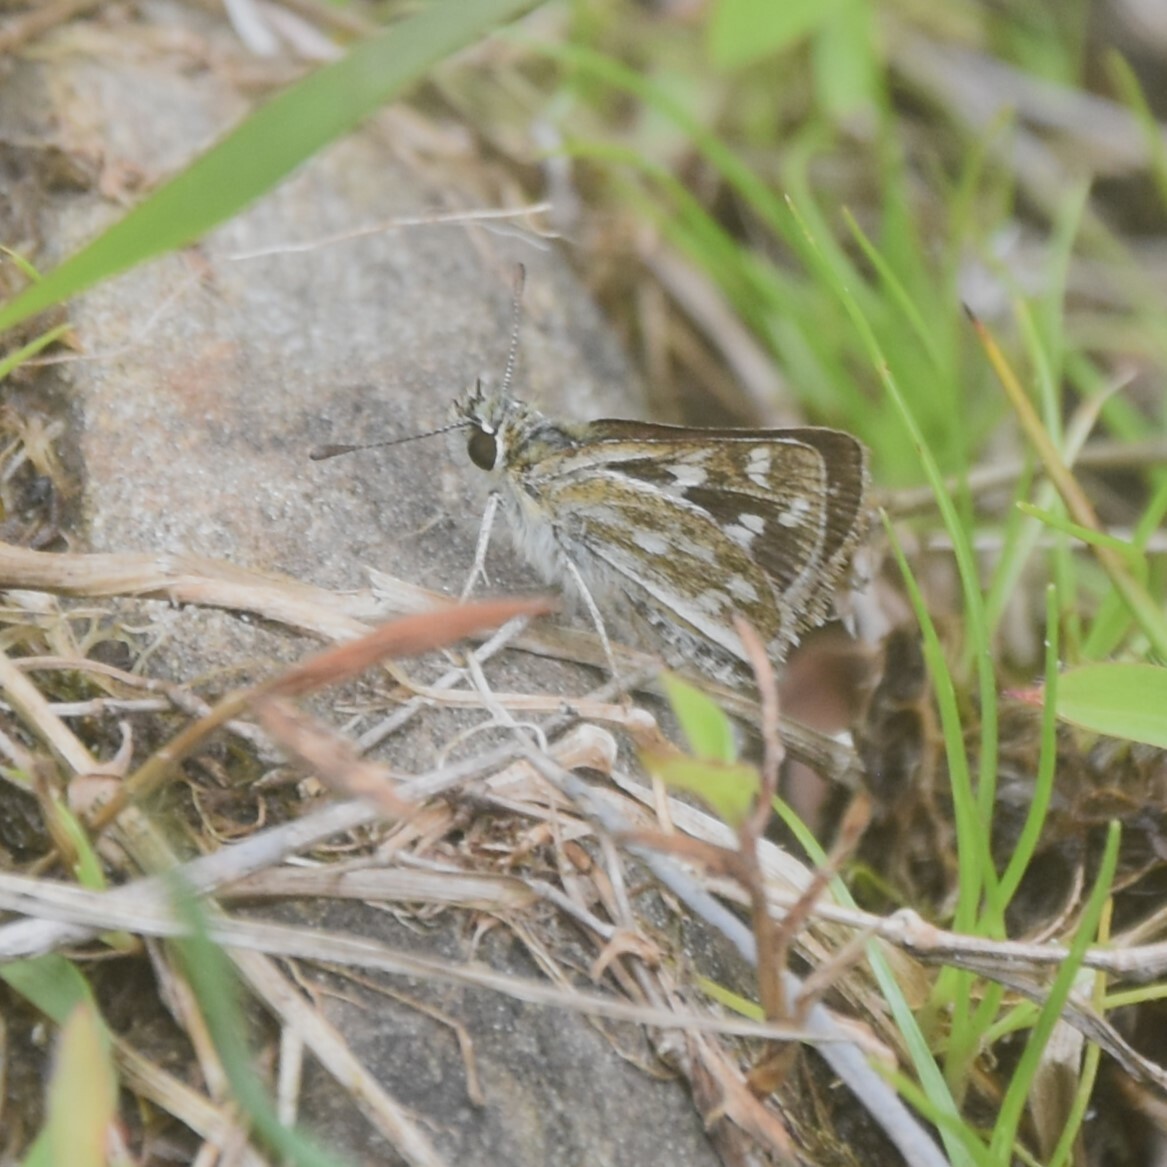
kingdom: Animalia
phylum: Arthropoda
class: Insecta
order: Lepidoptera
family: Hesperiidae
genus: Taractrocera
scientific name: Taractrocera danna
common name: Himalayan grass dart
